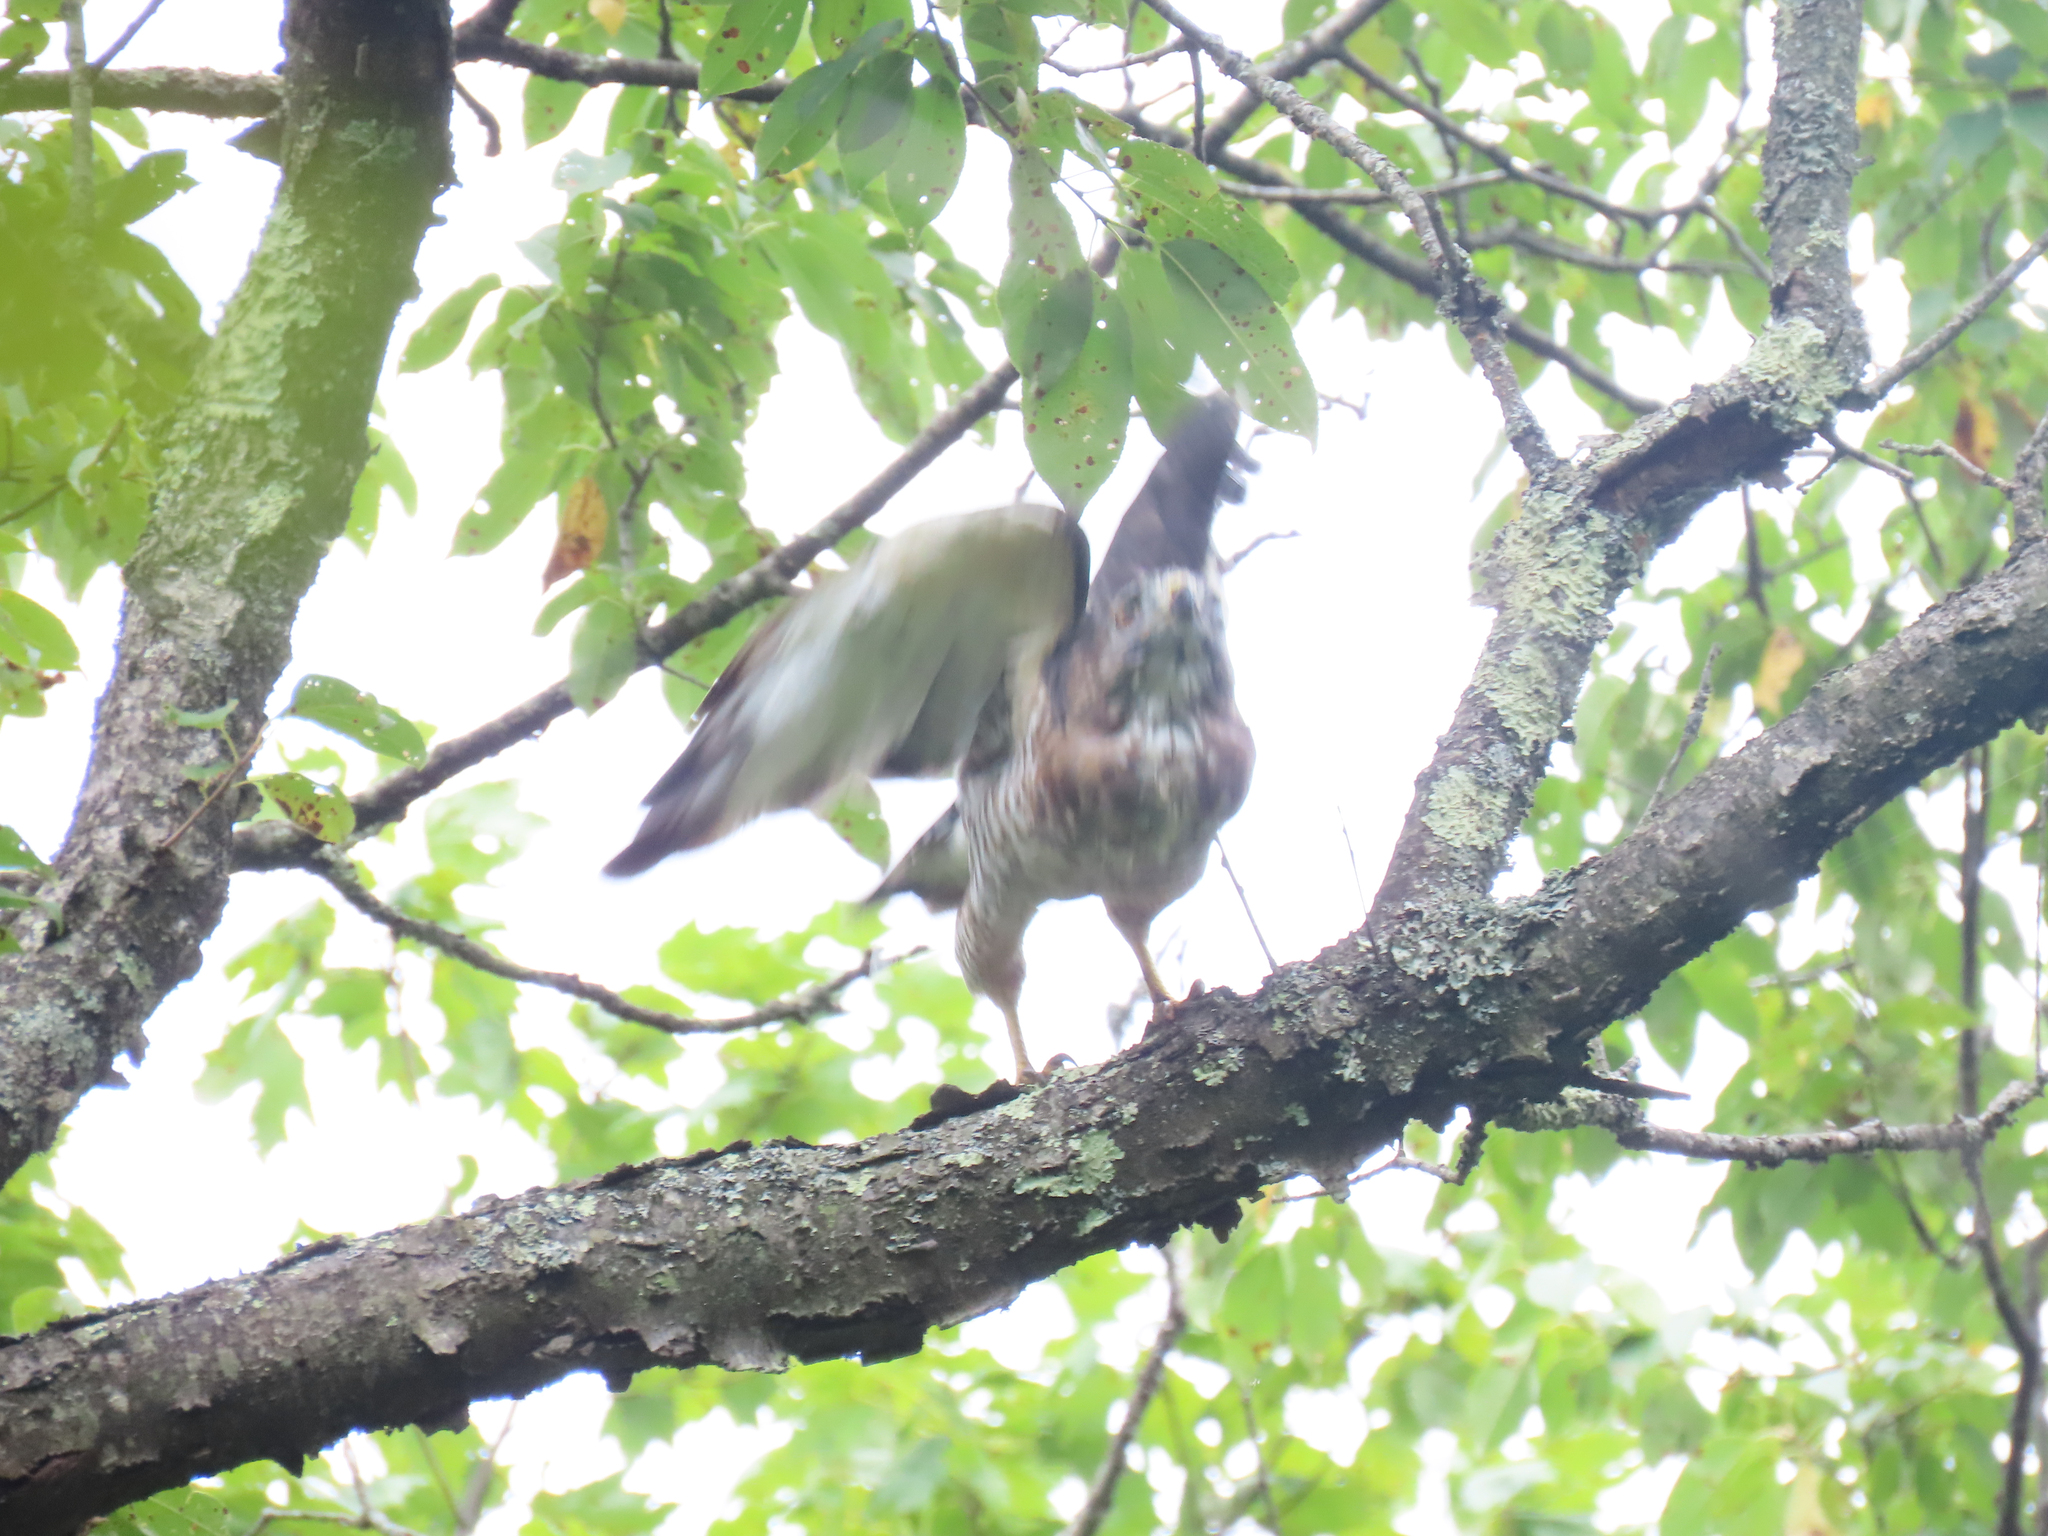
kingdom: Animalia
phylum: Chordata
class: Aves
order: Accipitriformes
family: Accipitridae
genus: Buteo
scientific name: Buteo platypterus
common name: Broad-winged hawk
